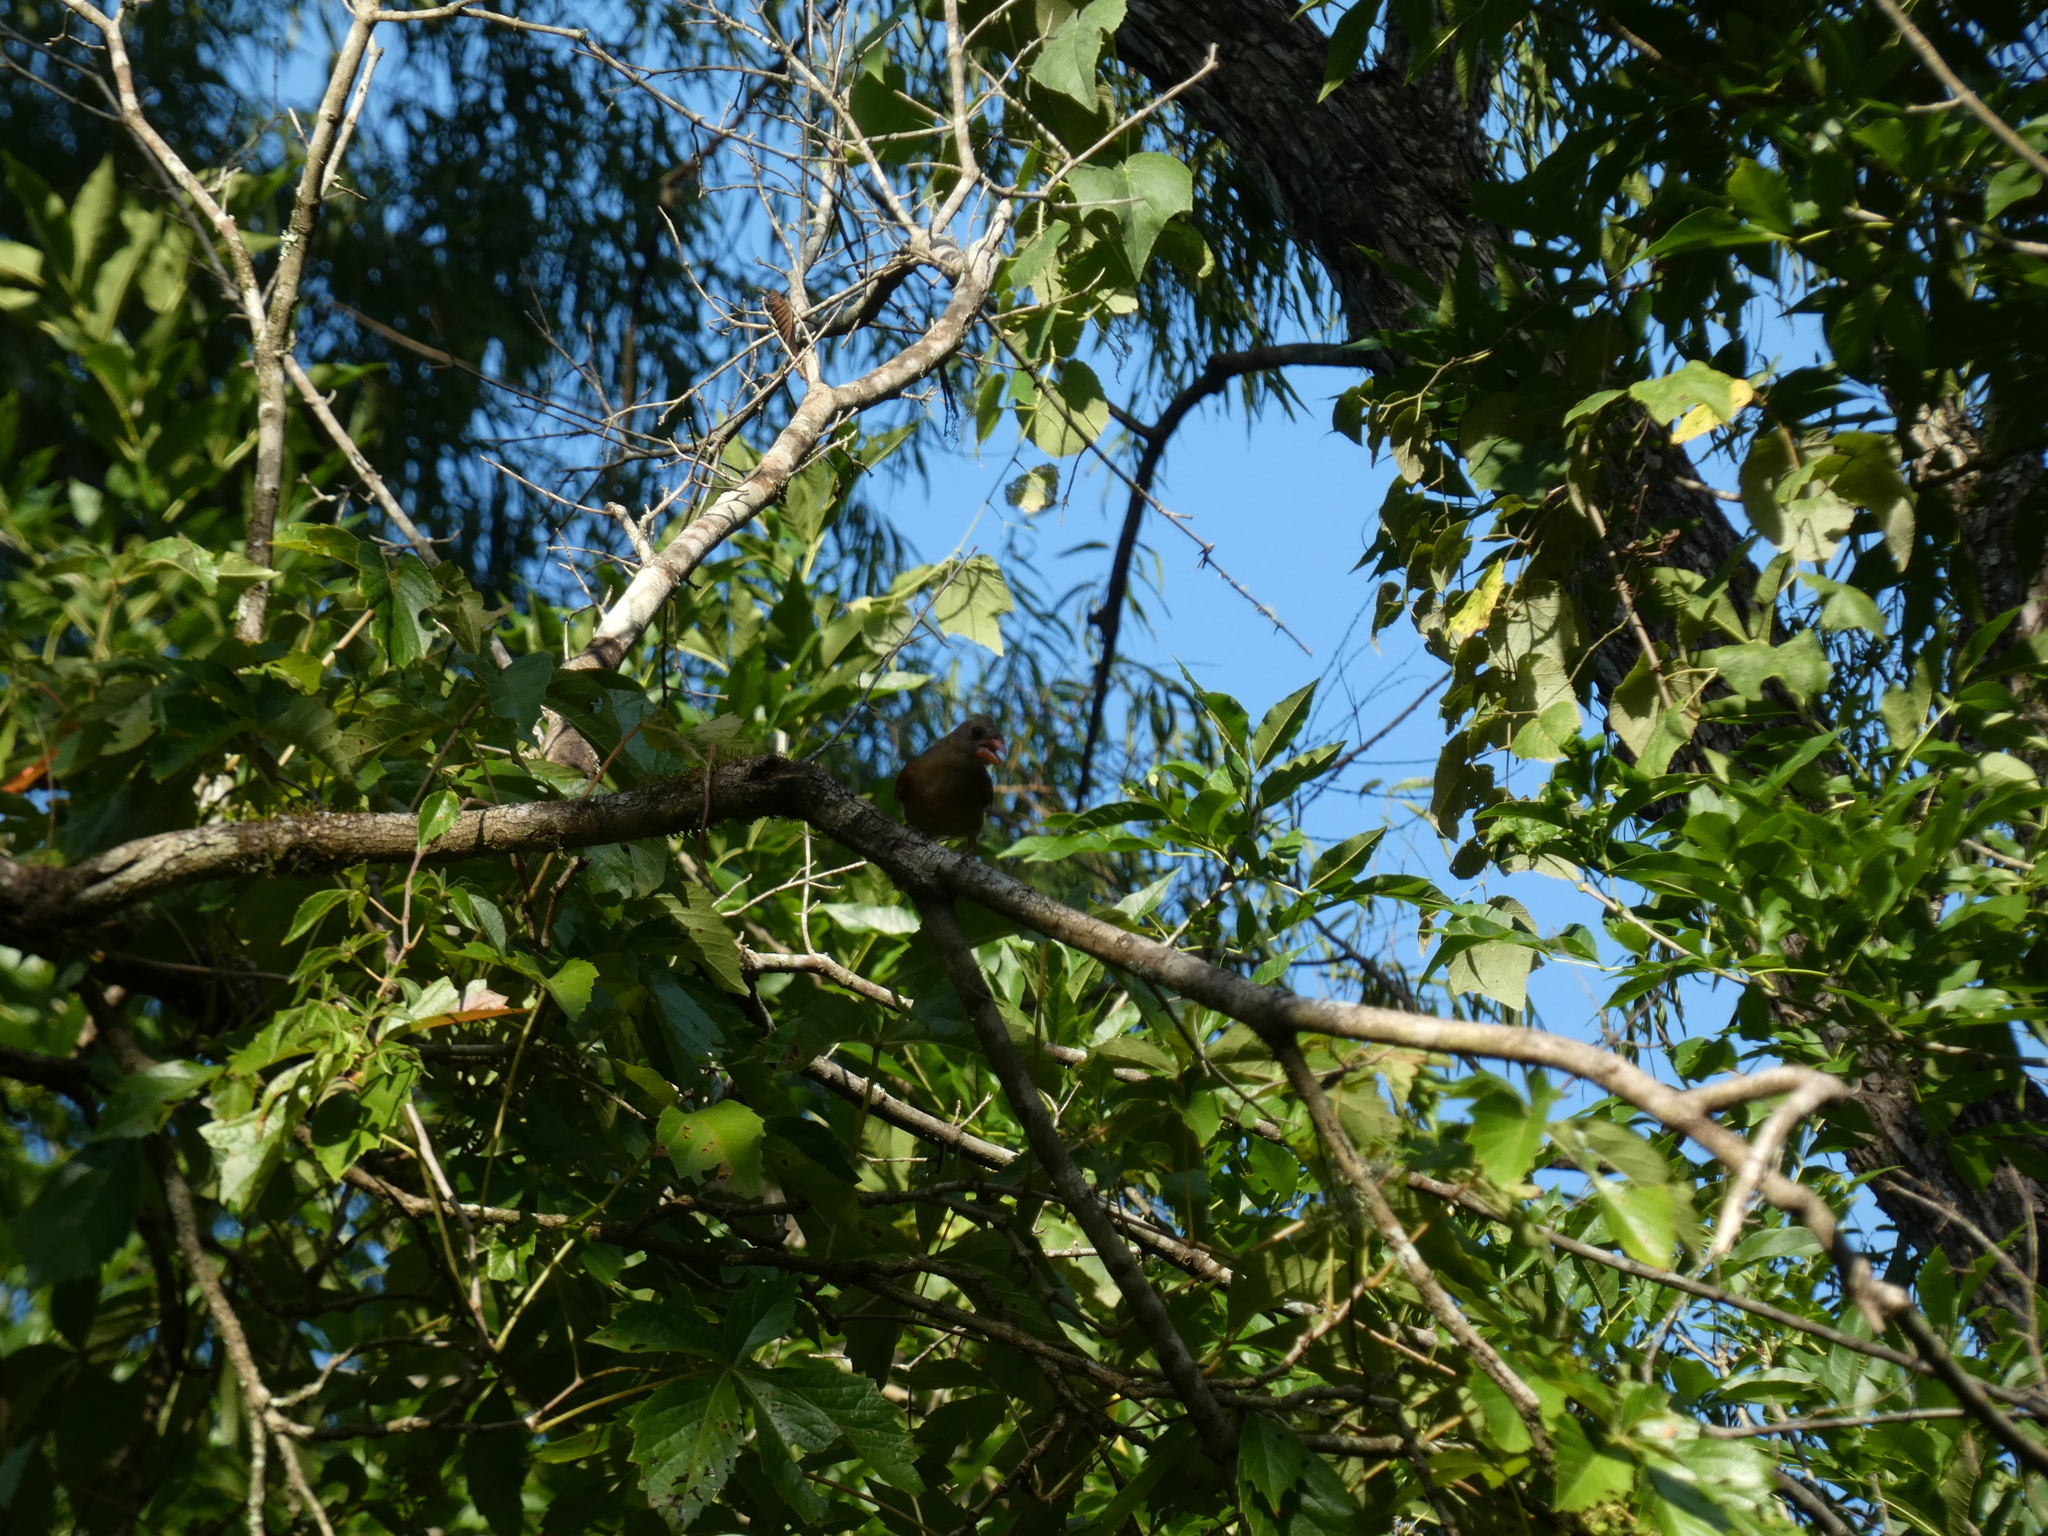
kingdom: Animalia
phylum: Chordata
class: Aves
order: Passeriformes
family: Cardinalidae
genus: Cardinalis
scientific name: Cardinalis cardinalis
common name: Northern cardinal
